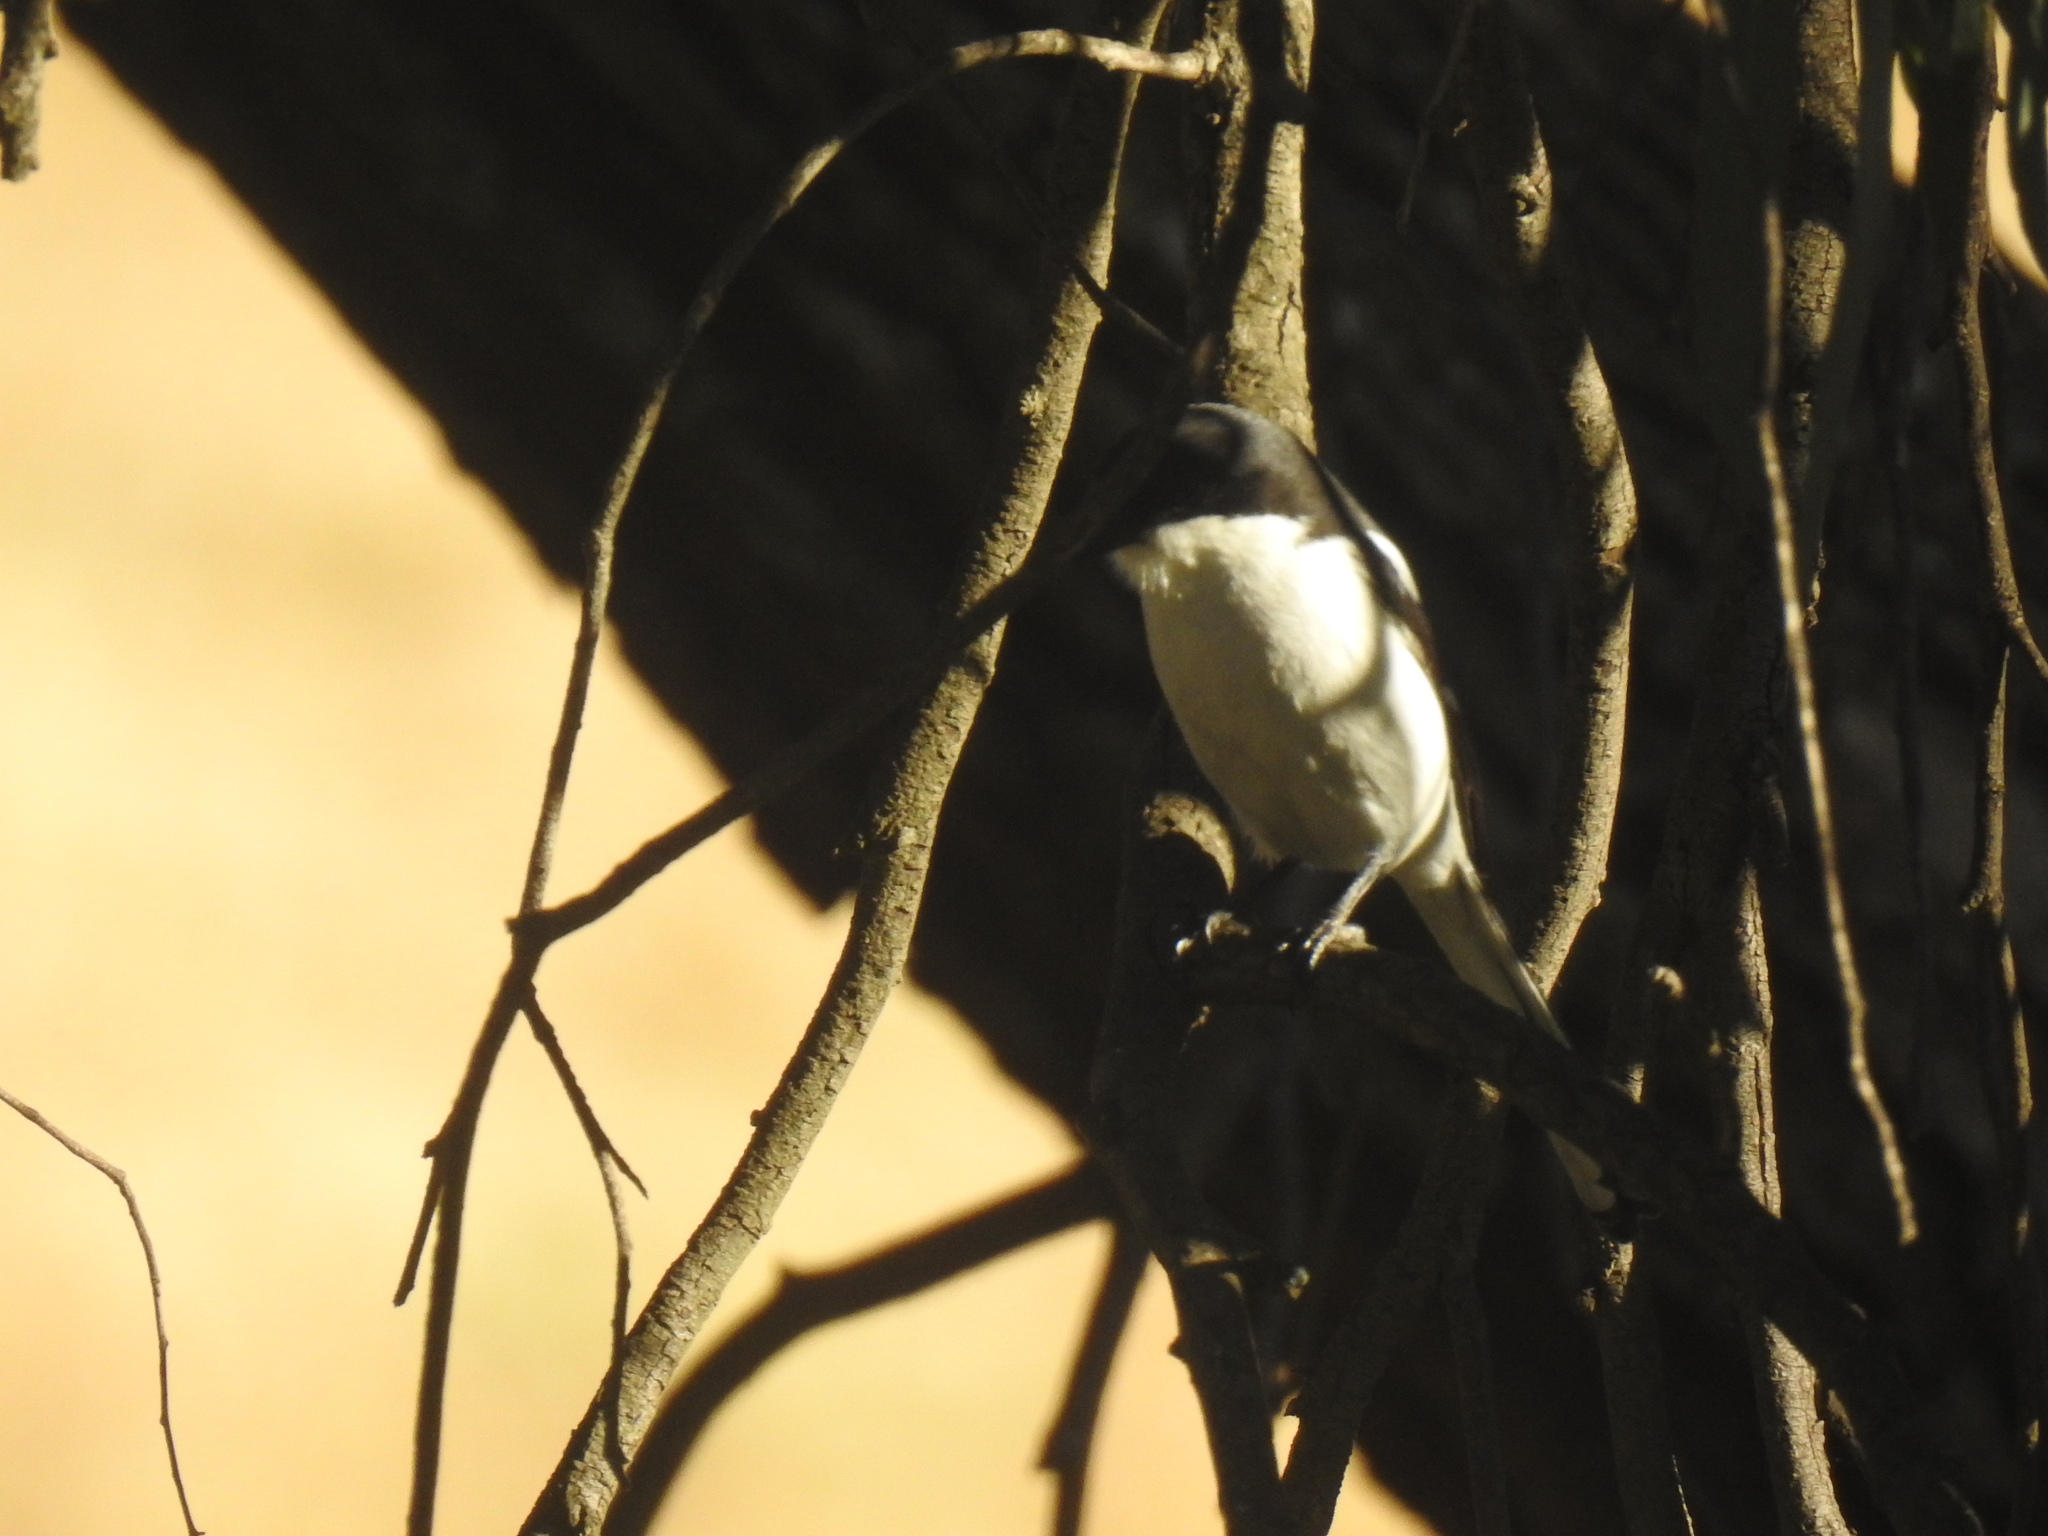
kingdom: Animalia
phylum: Chordata
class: Aves
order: Passeriformes
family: Laniidae
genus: Lanius
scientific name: Lanius collaris
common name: Southern fiscal
